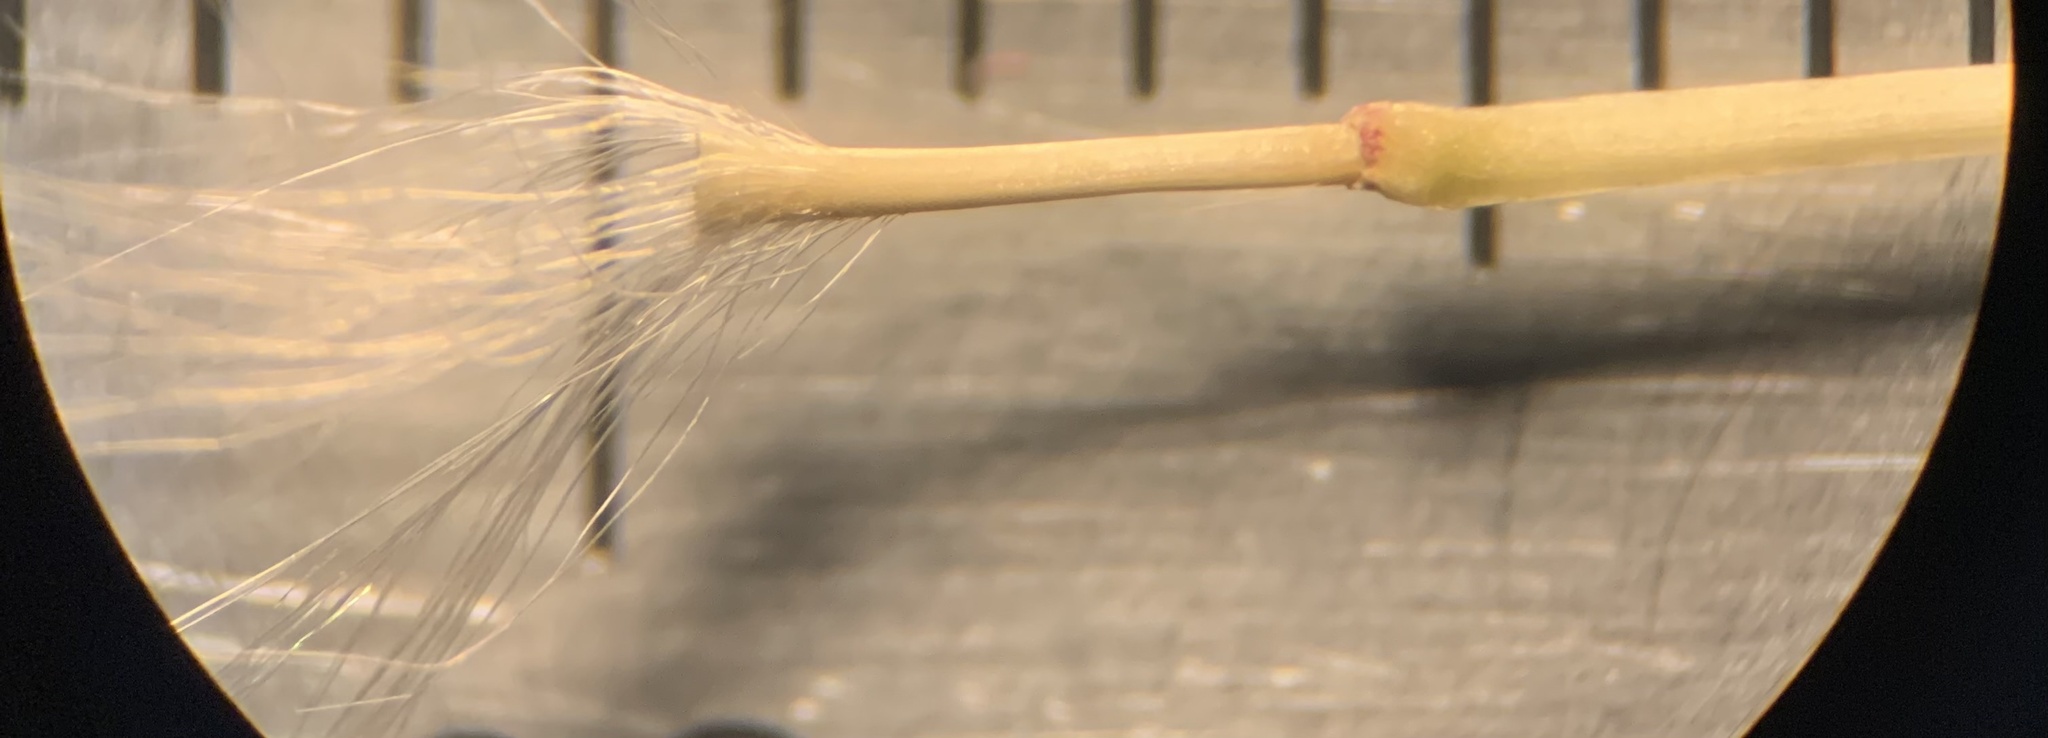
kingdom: Plantae
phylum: Tracheophyta
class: Liliopsida
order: Poales
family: Poaceae
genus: Andropogon
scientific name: Andropogon longiberbis
